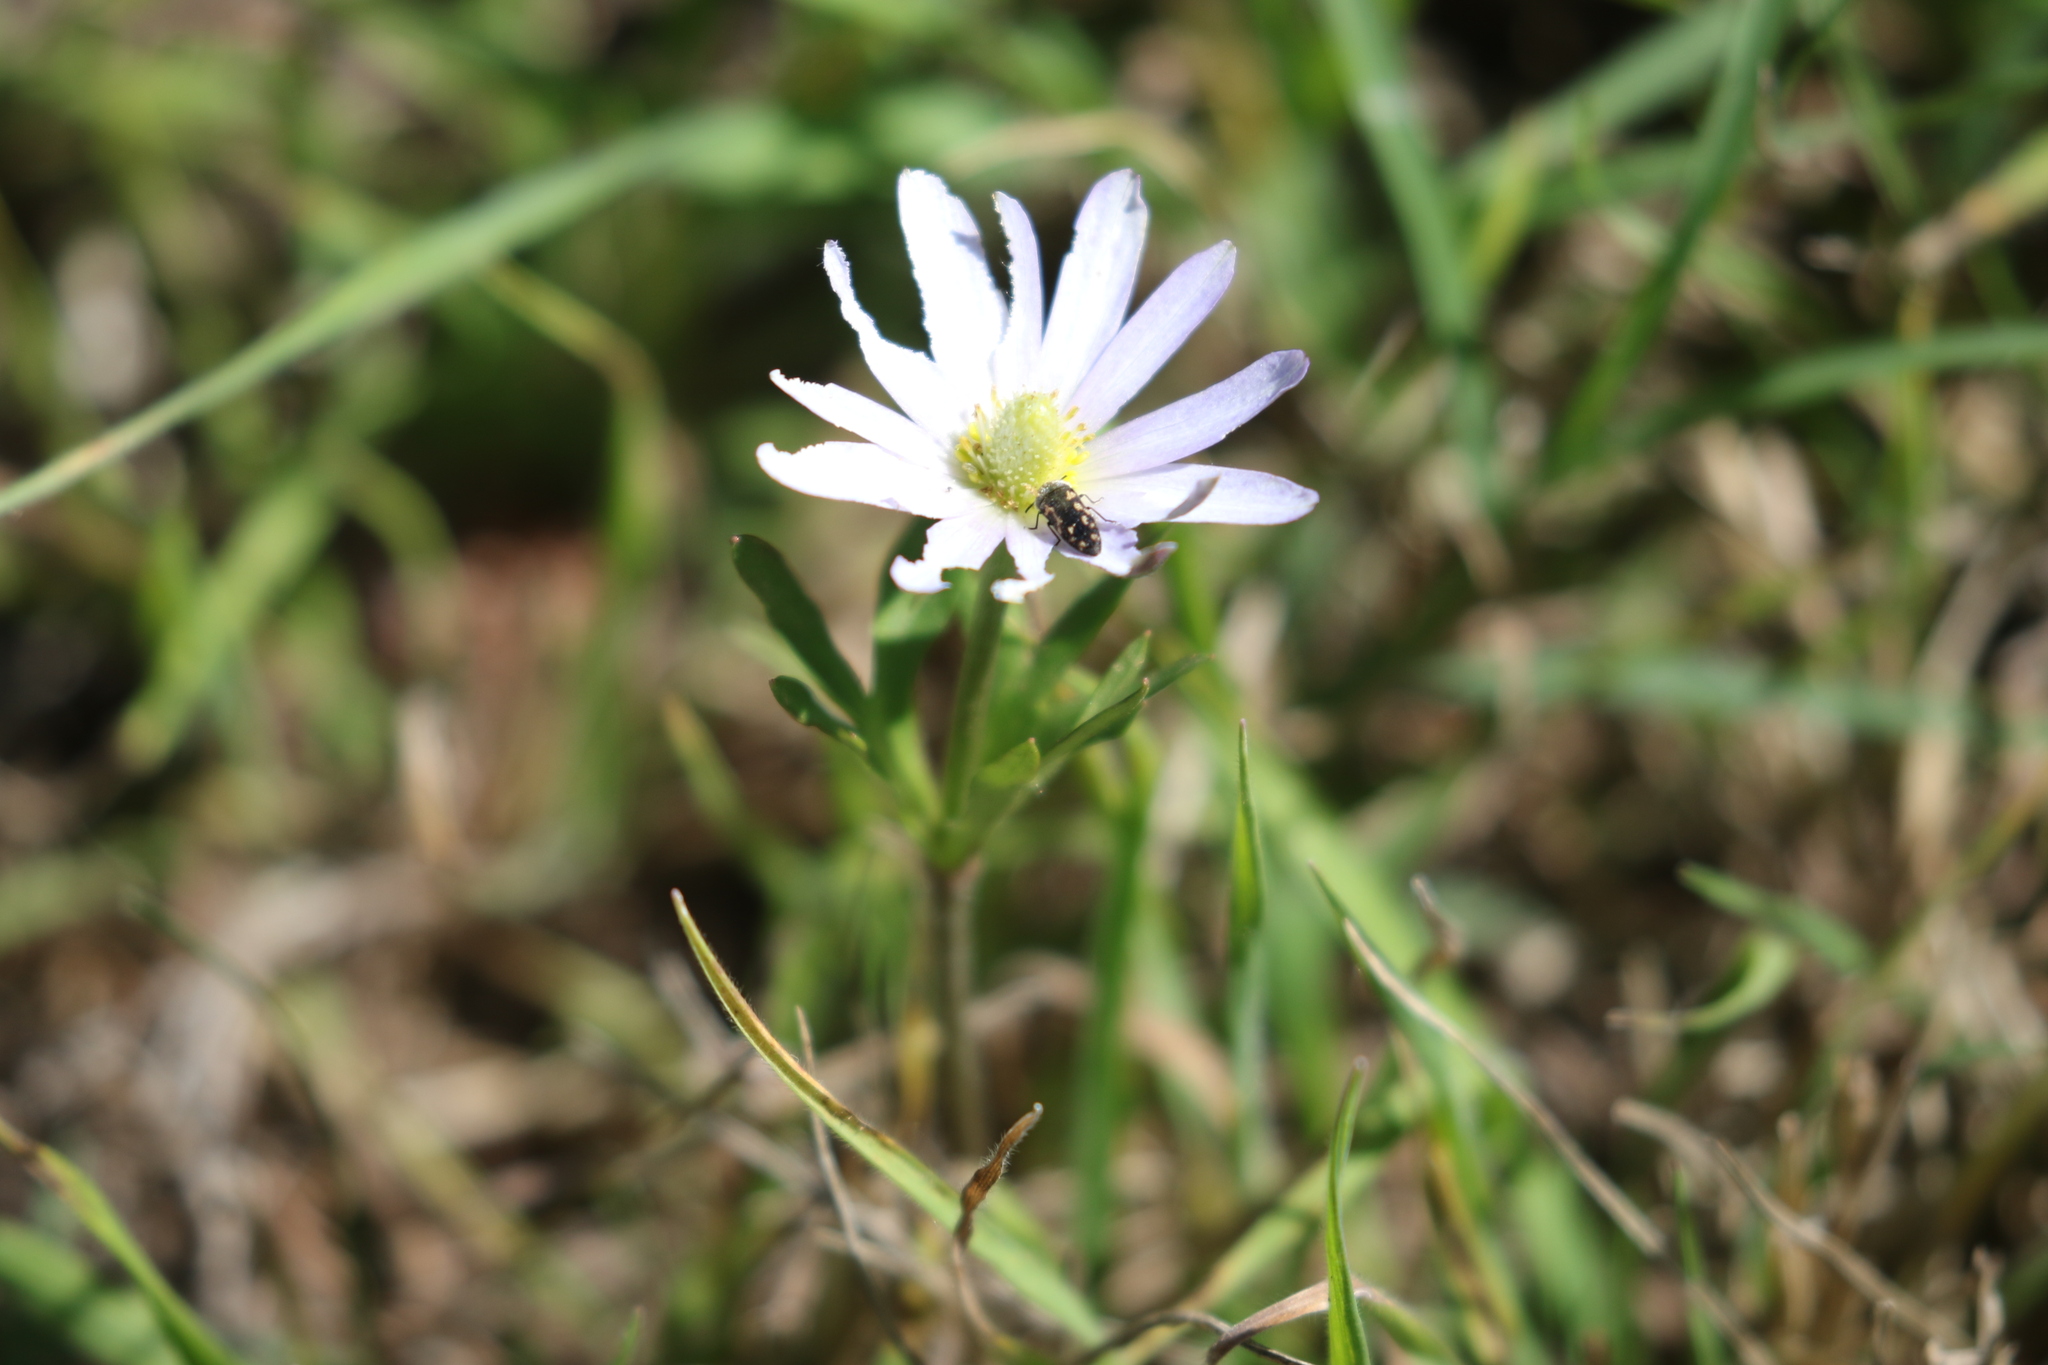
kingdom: Plantae
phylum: Tracheophyta
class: Magnoliopsida
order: Ranunculales
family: Ranunculaceae
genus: Anemone
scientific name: Anemone berlandieri
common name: Ten-petal anemone
